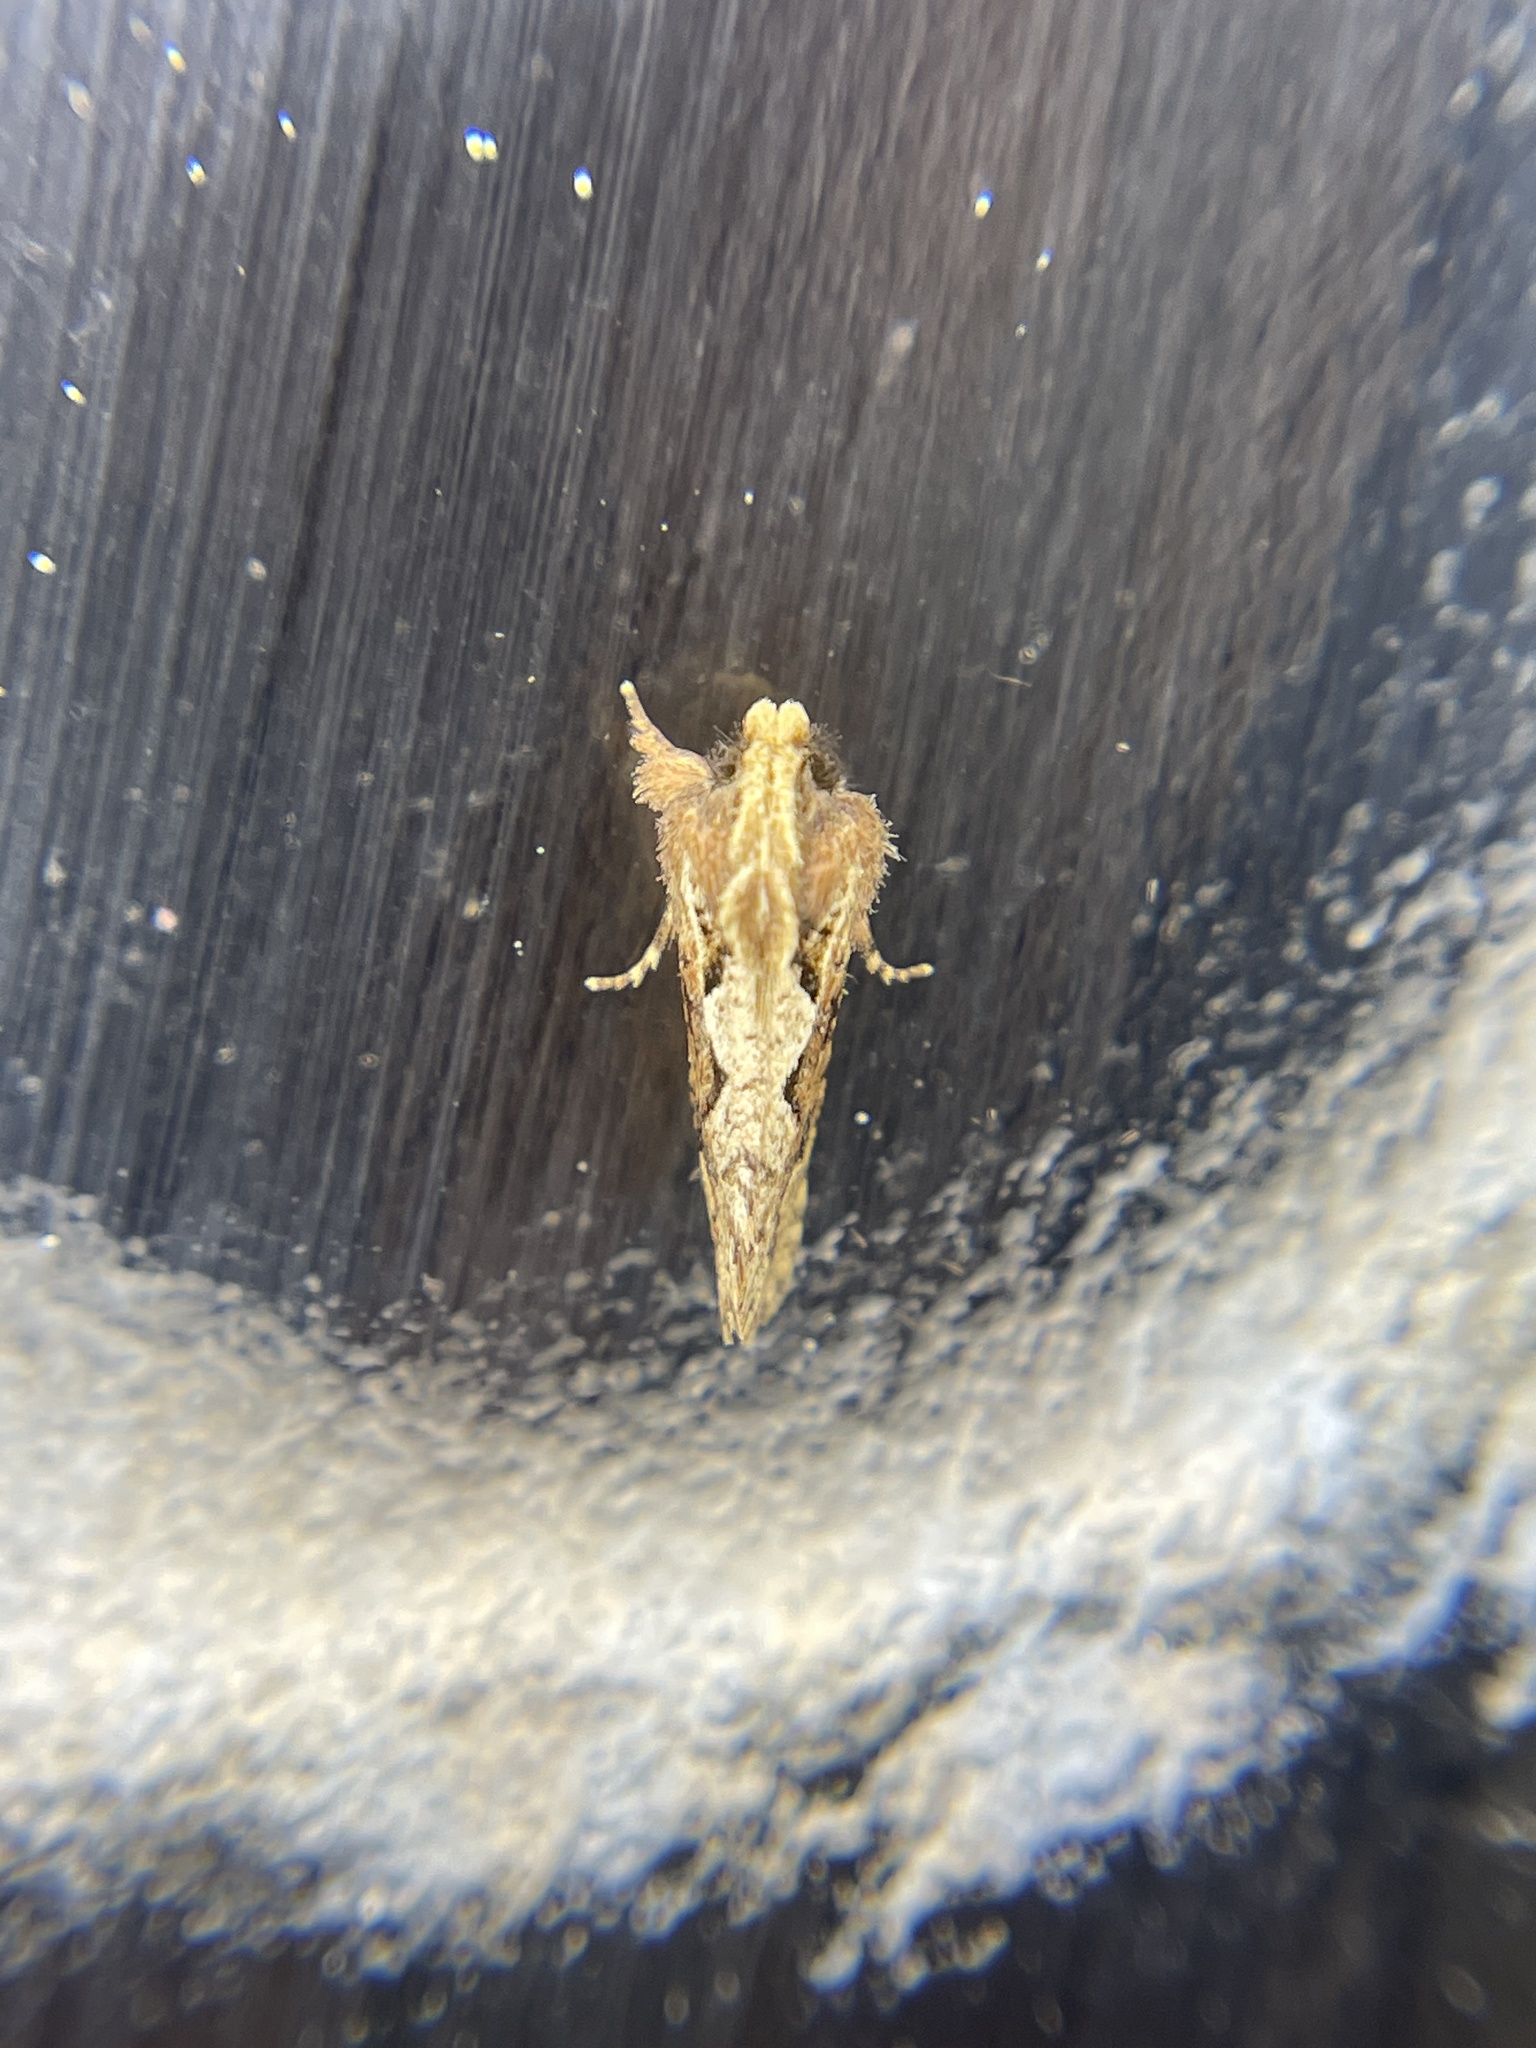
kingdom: Animalia
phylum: Arthropoda
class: Insecta
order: Lepidoptera
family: Tineidae
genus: Acrolophus
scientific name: Acrolophus walsinghami
